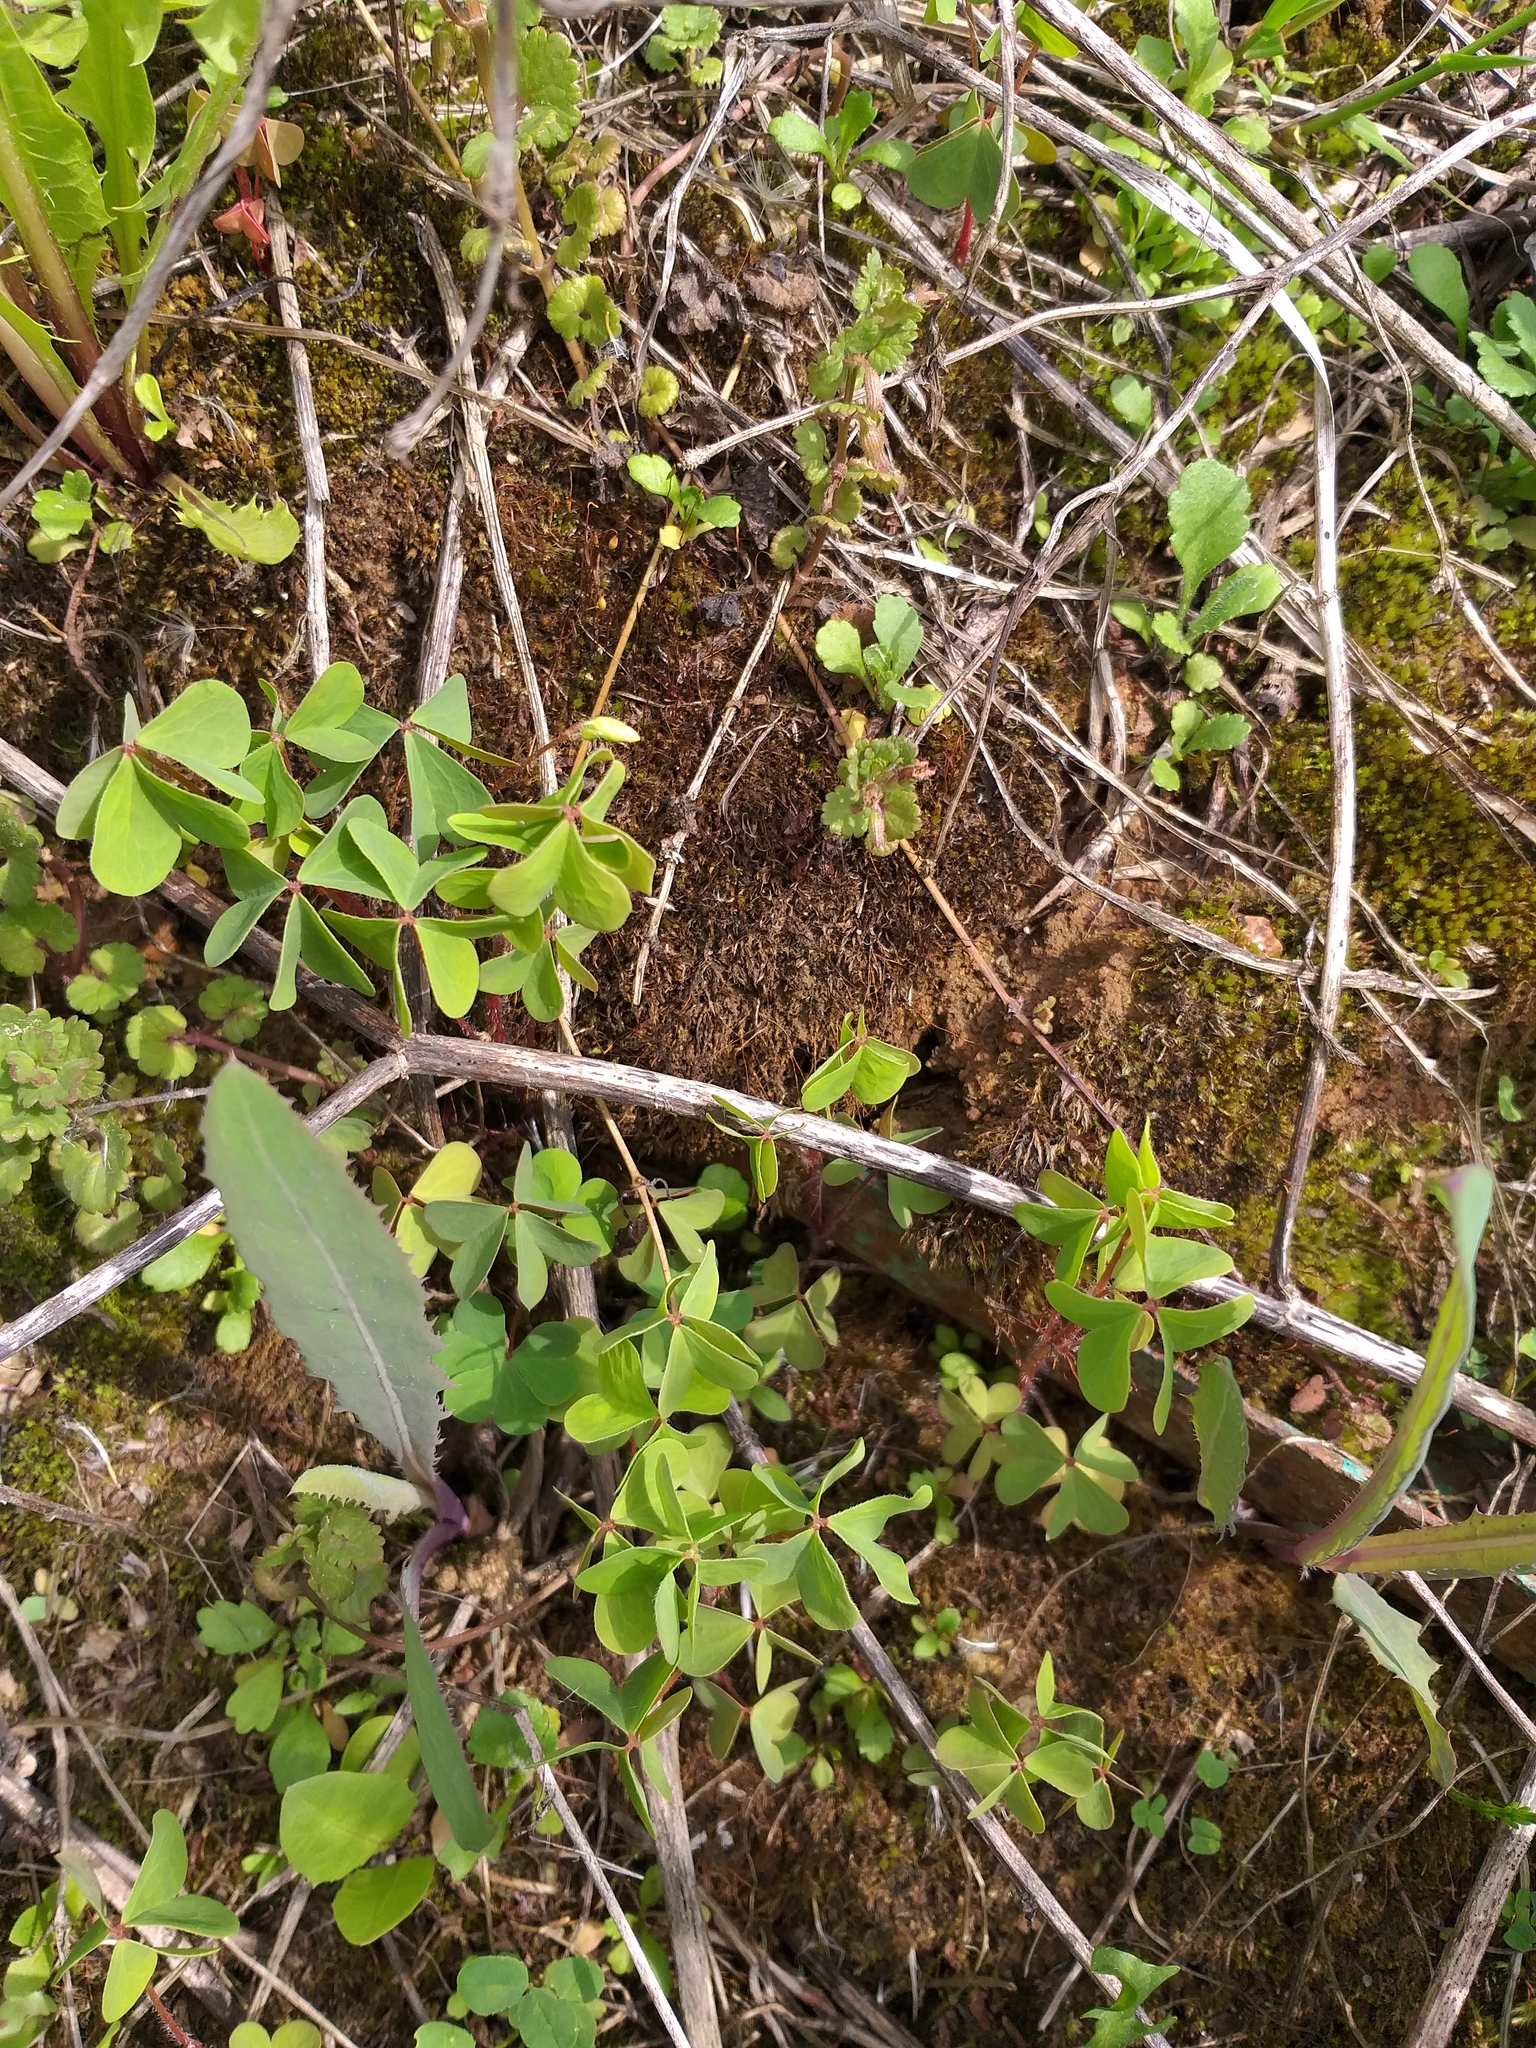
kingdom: Plantae
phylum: Tracheophyta
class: Magnoliopsida
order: Oxalidales
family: Oxalidaceae
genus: Oxalis
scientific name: Oxalis stricta
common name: Upright yellow-sorrel
